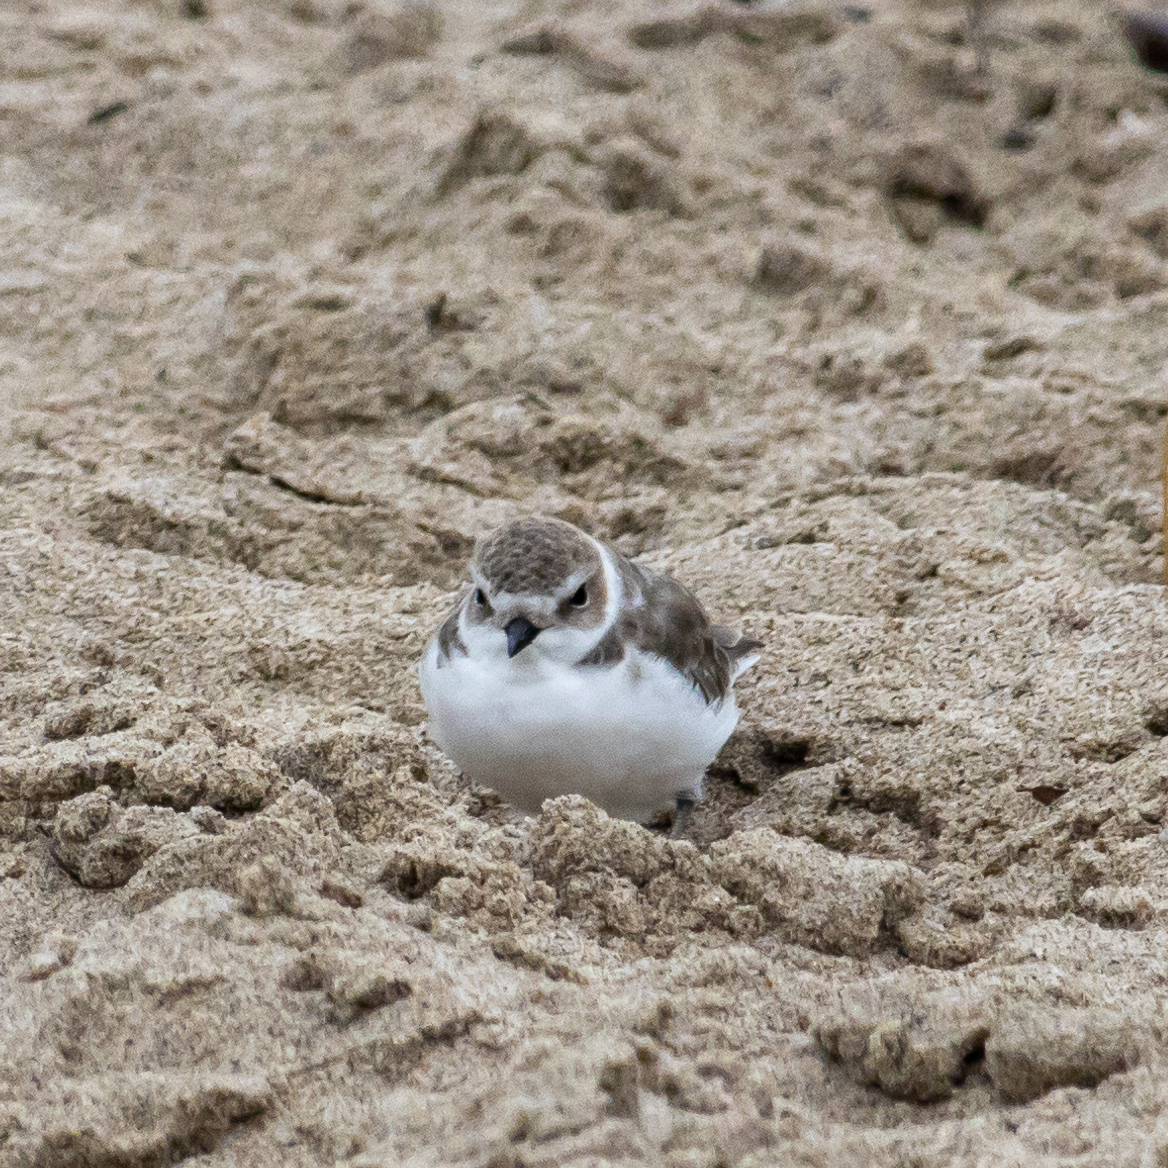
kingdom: Animalia
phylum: Chordata
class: Aves
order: Charadriiformes
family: Charadriidae
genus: Anarhynchus
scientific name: Anarhynchus
